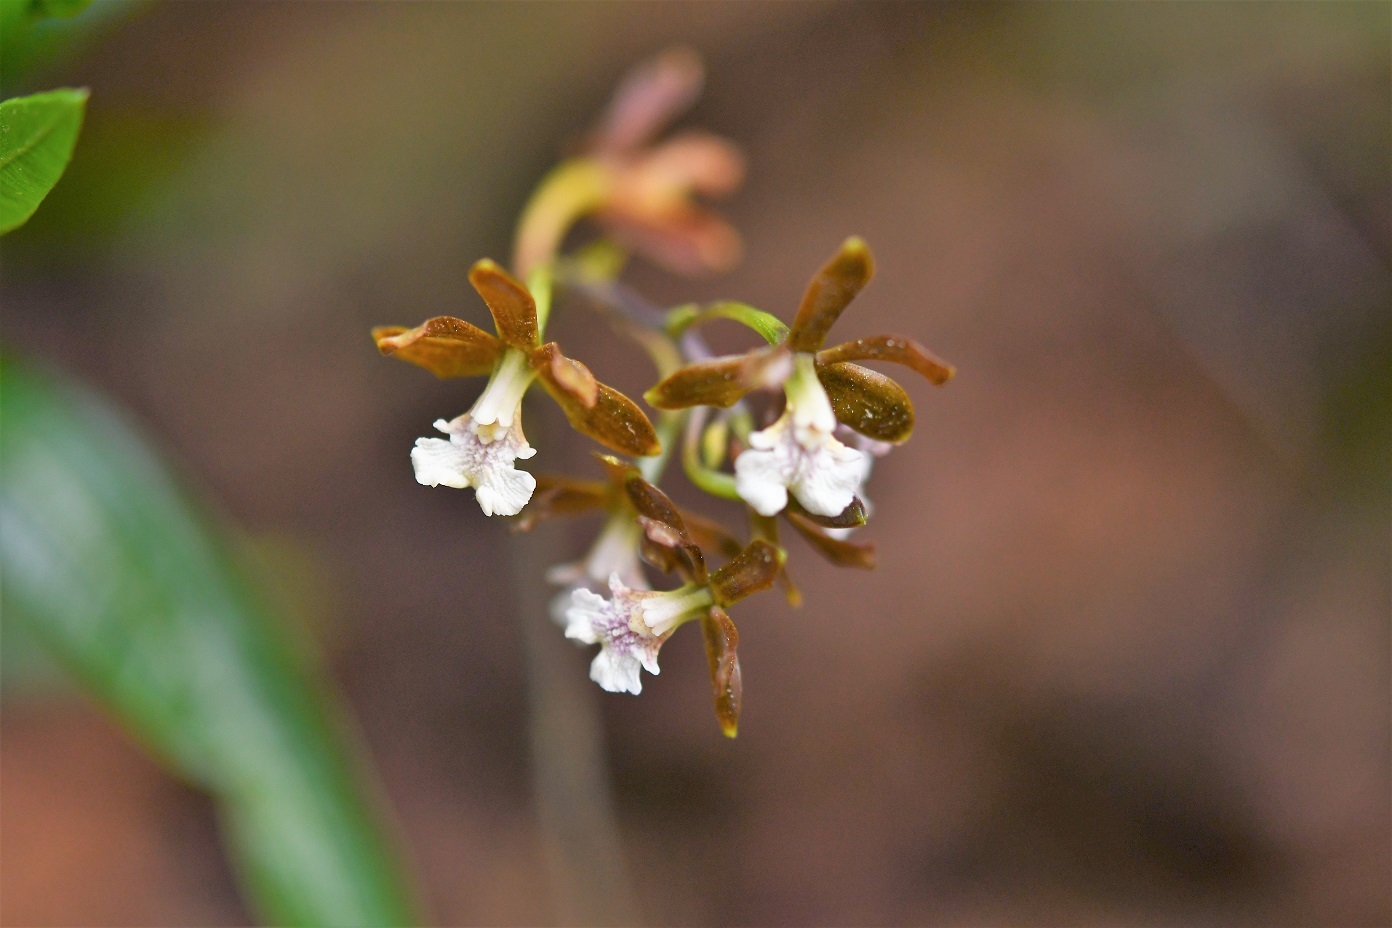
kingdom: Plantae
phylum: Tracheophyta
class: Liliopsida
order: Asparagales
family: Orchidaceae
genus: Prosthechea
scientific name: Prosthechea varicosa
